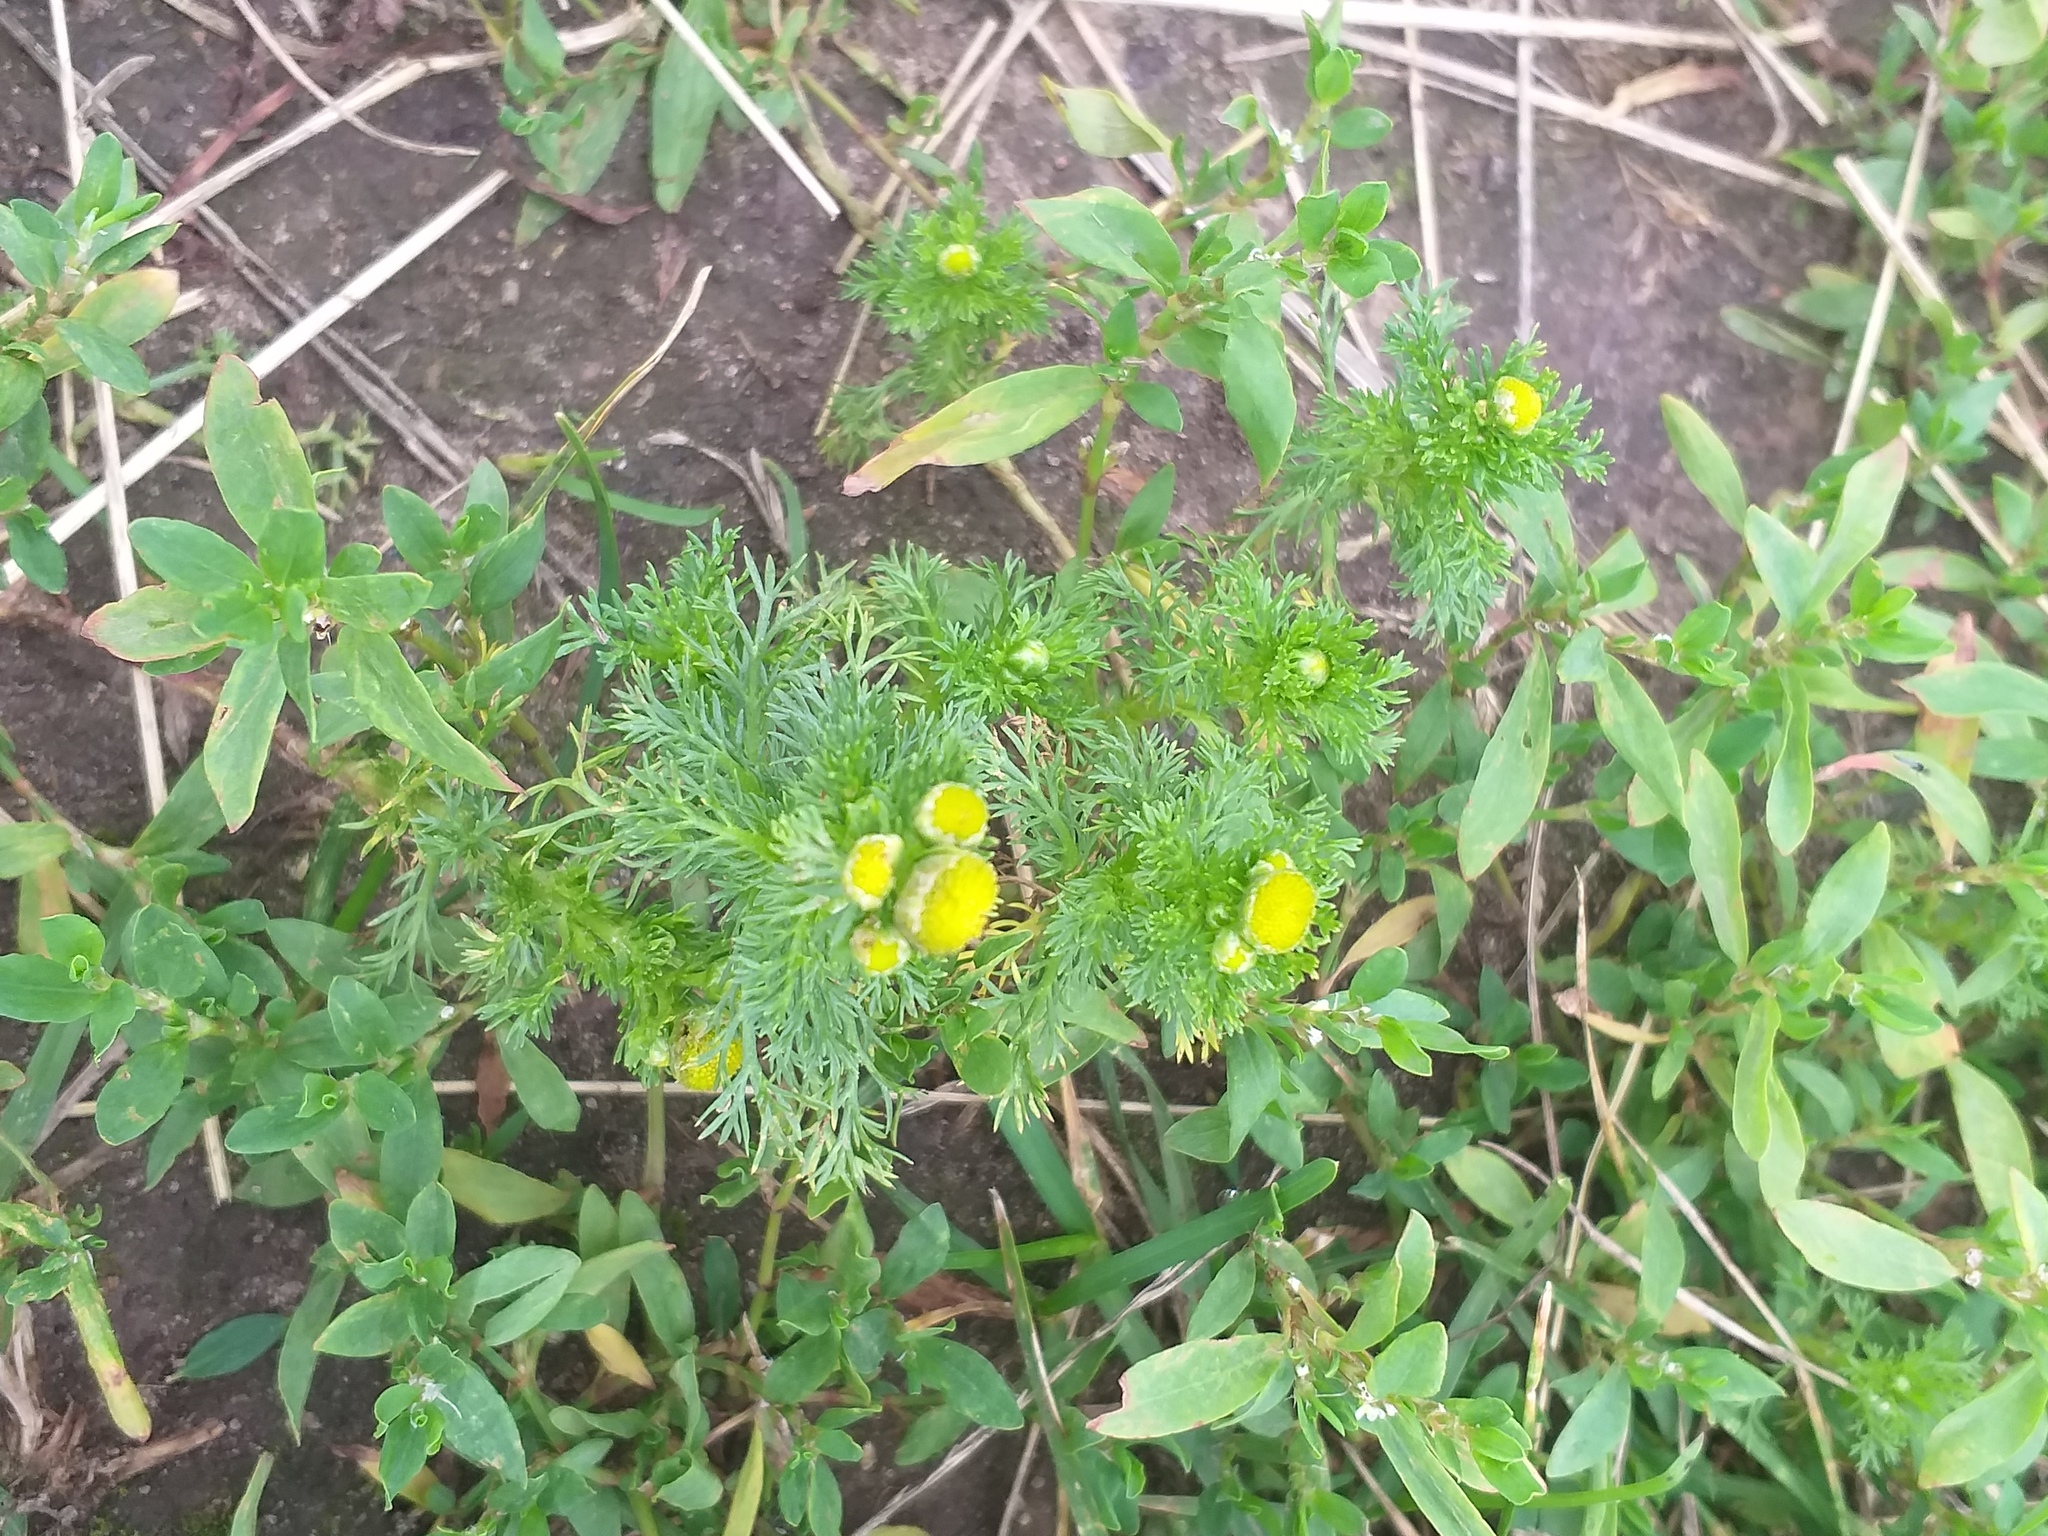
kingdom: Plantae
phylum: Tracheophyta
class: Magnoliopsida
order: Asterales
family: Asteraceae
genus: Matricaria
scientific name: Matricaria discoidea
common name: Disc mayweed
